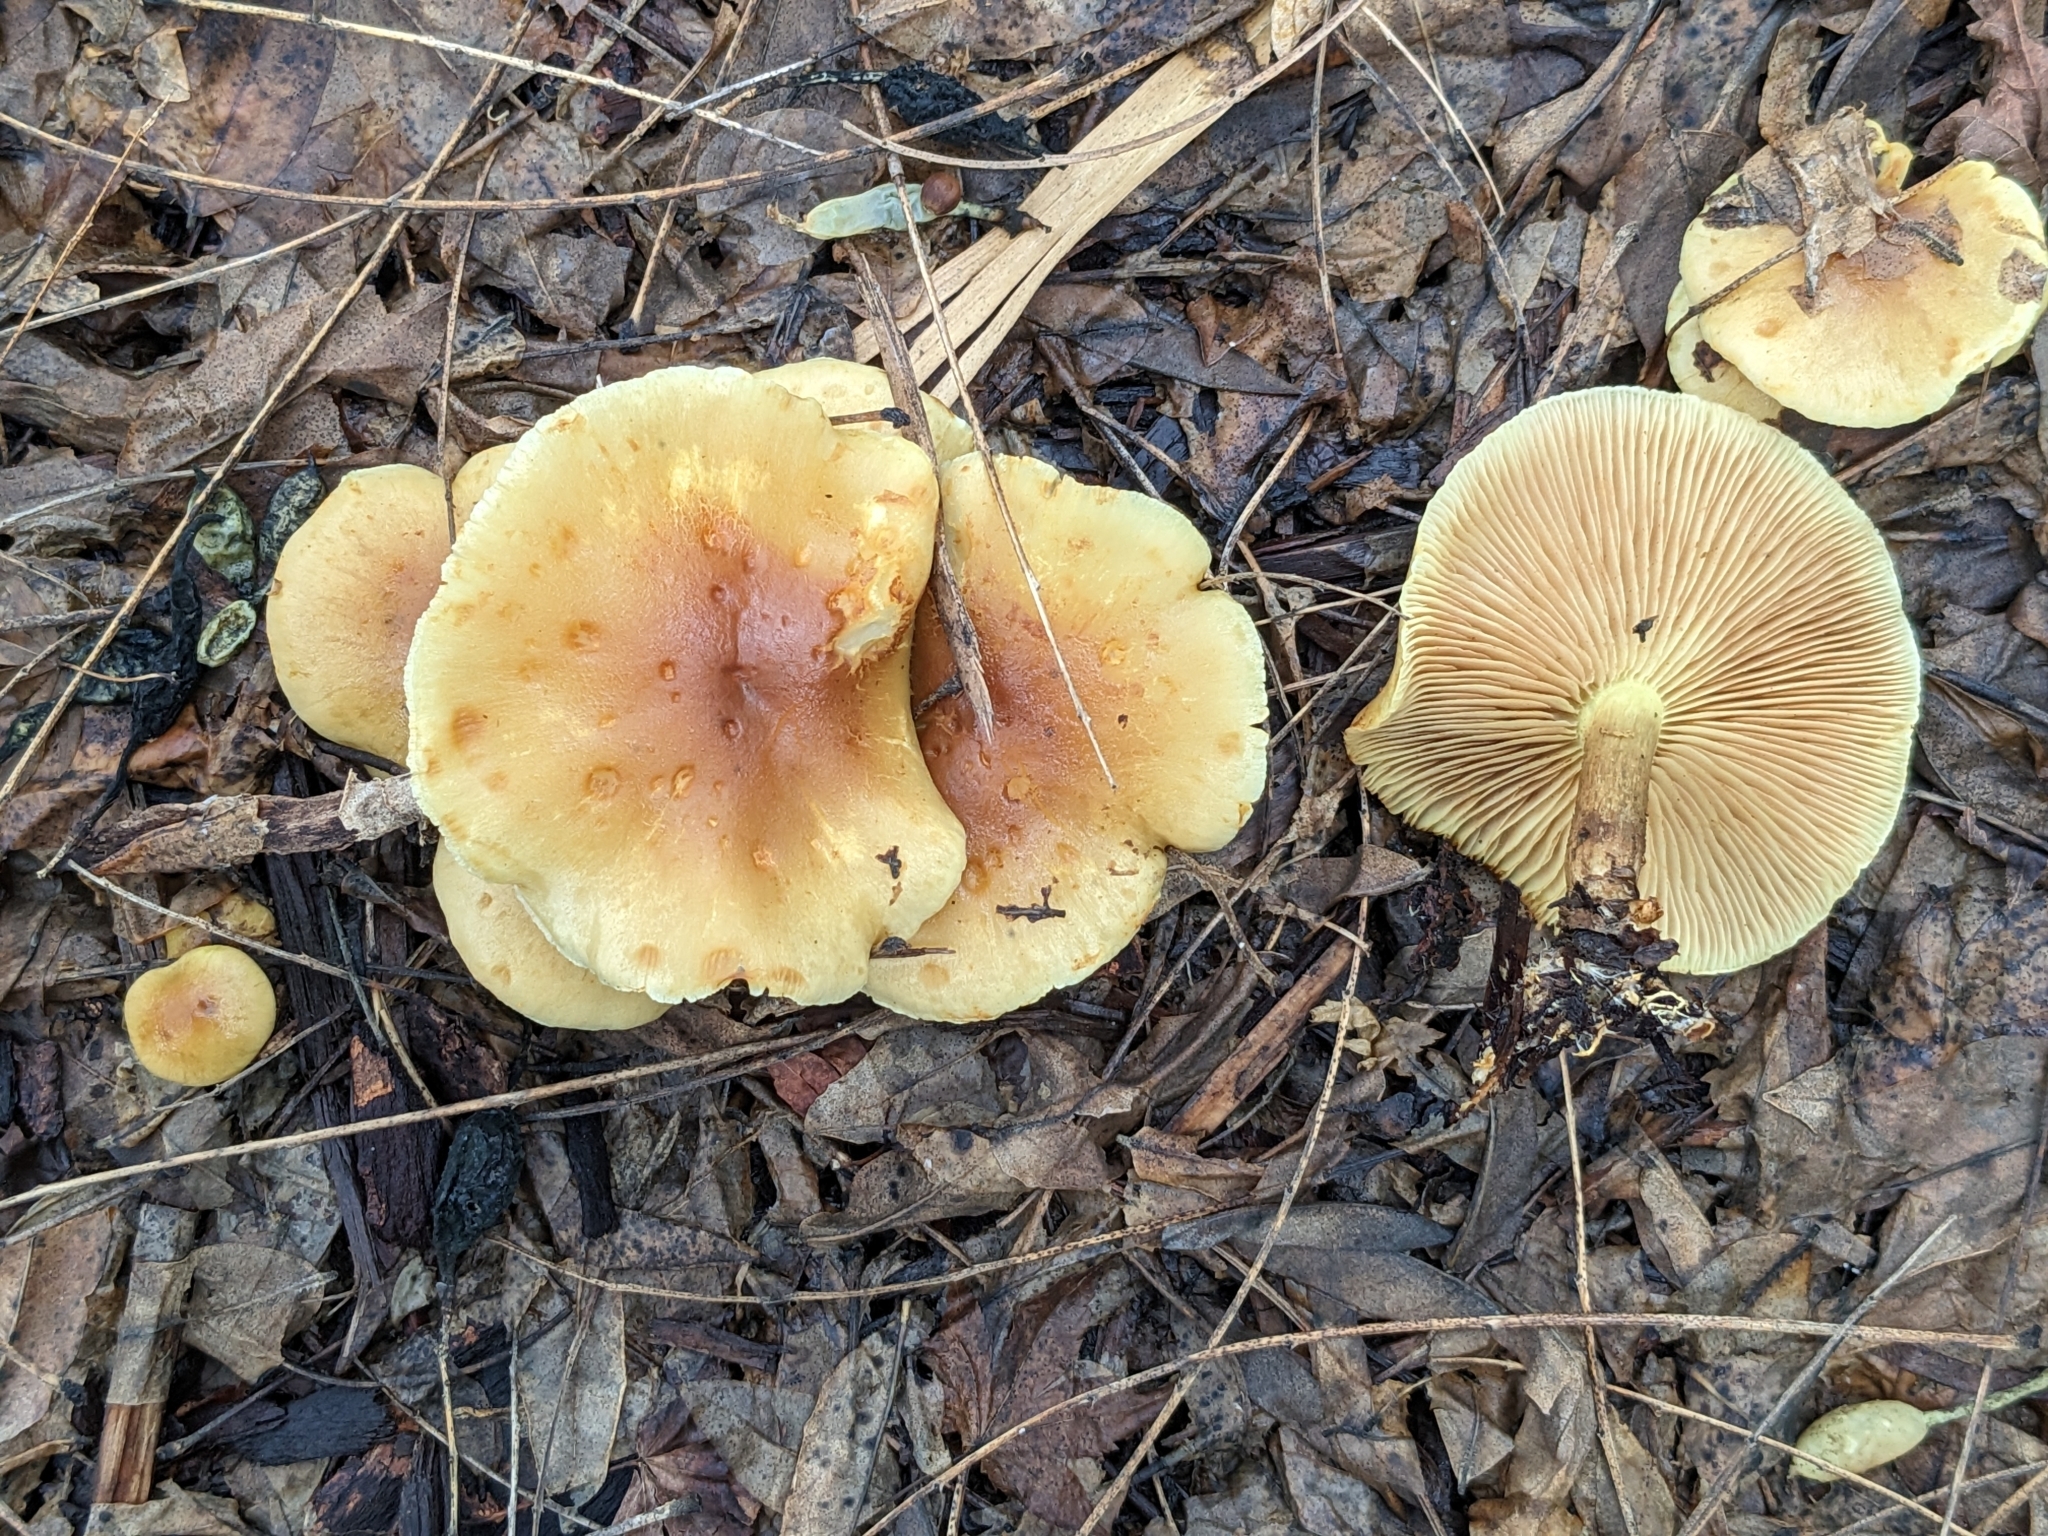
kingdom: Fungi
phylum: Basidiomycota
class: Agaricomycetes
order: Agaricales
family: Strophariaceae
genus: Hypholoma
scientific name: Hypholoma fasciculare
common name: Sulphur tuft
